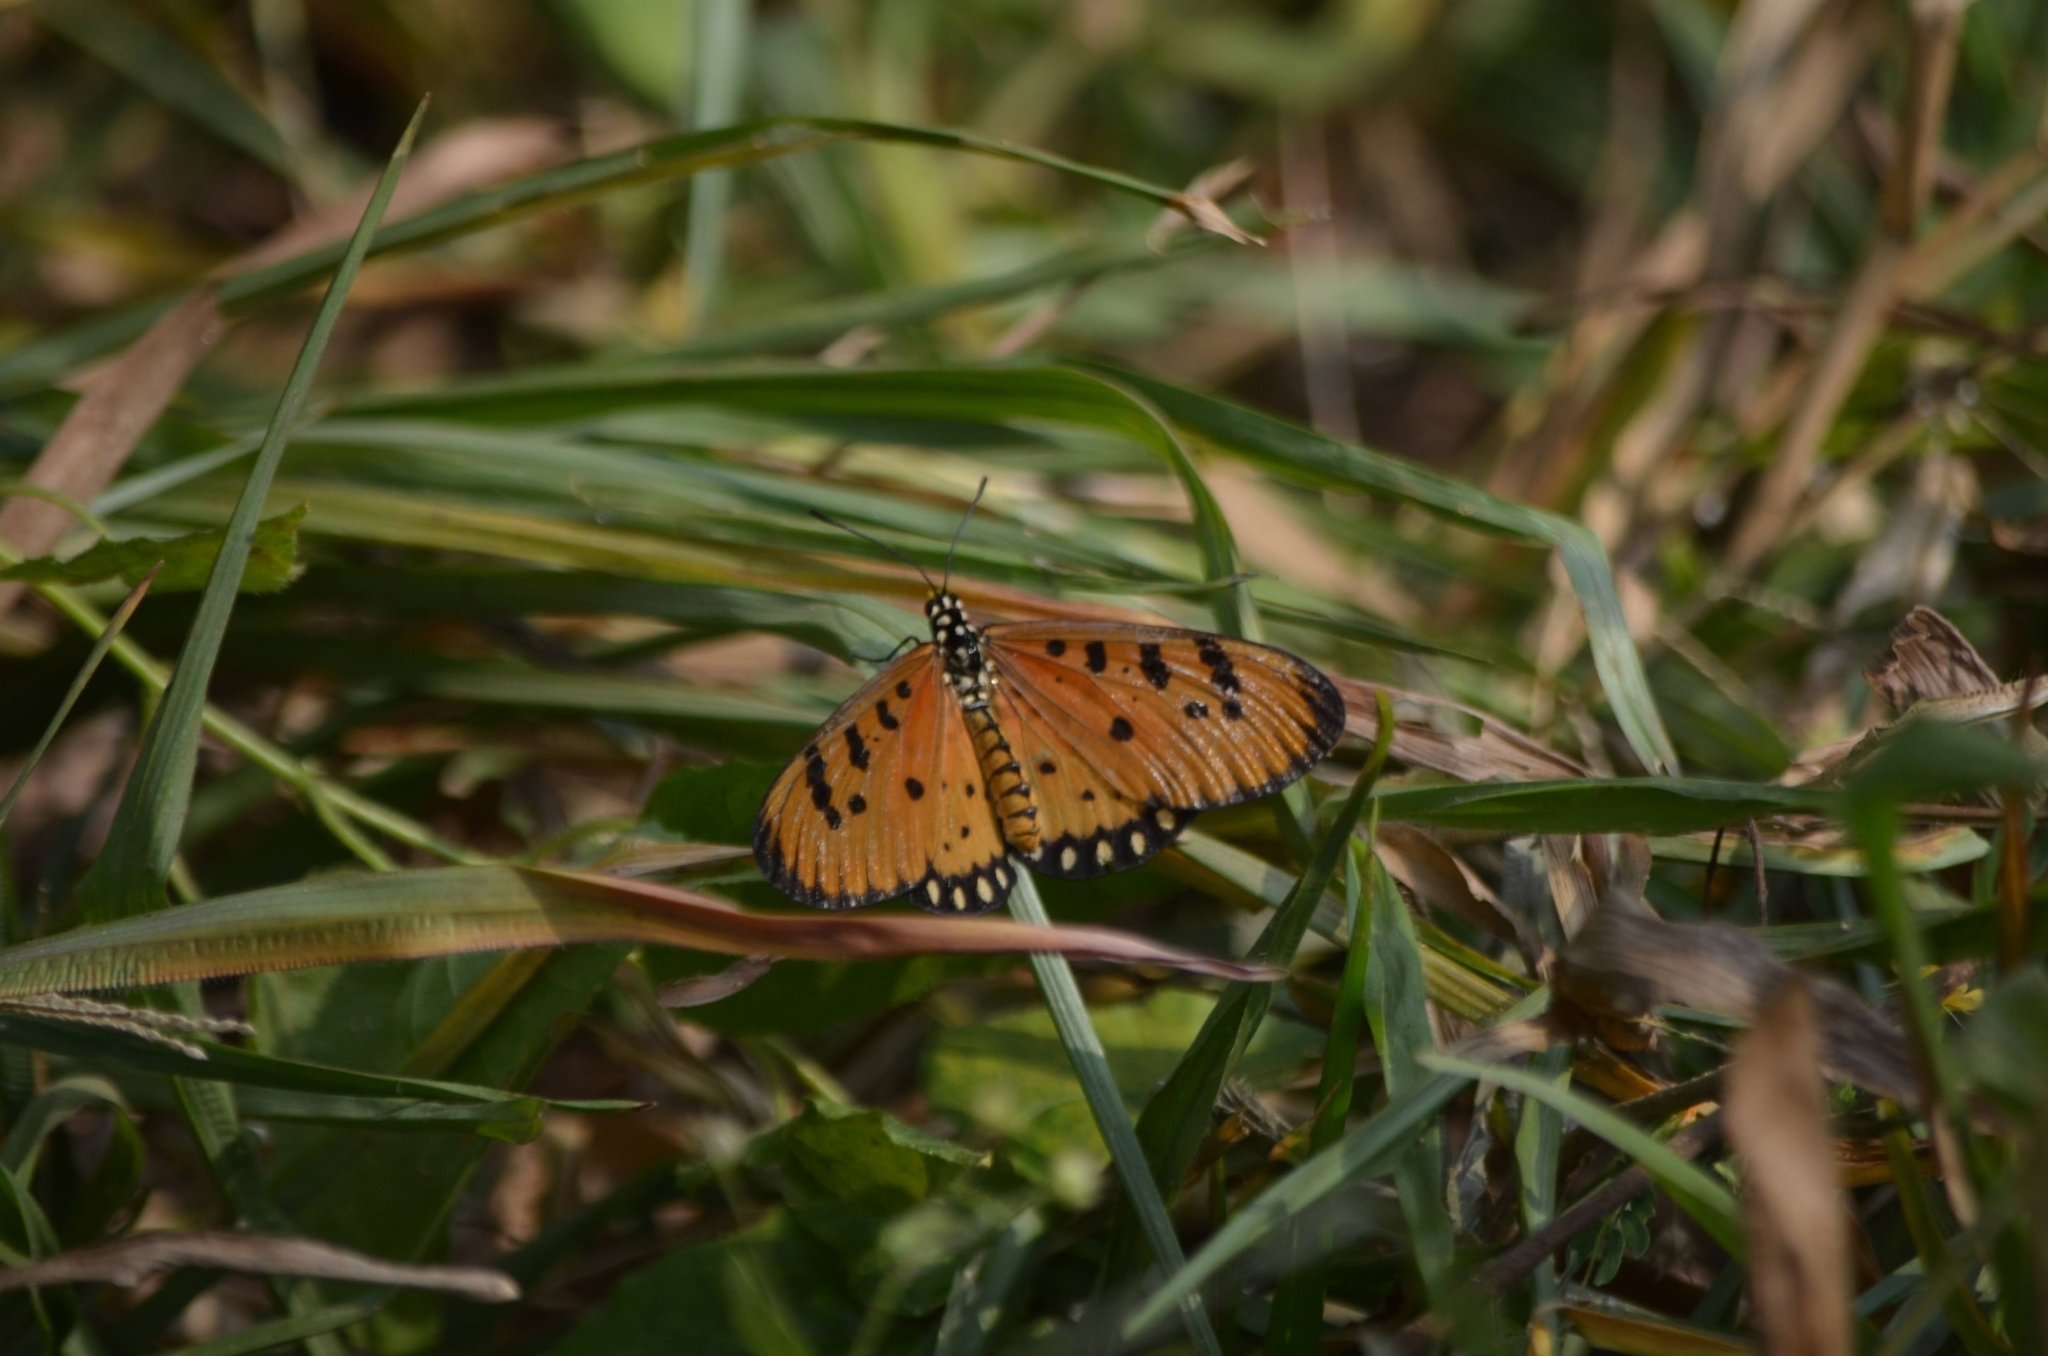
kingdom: Animalia
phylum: Arthropoda
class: Insecta
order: Lepidoptera
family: Nymphalidae
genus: Acraea
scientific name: Acraea terpsicore
